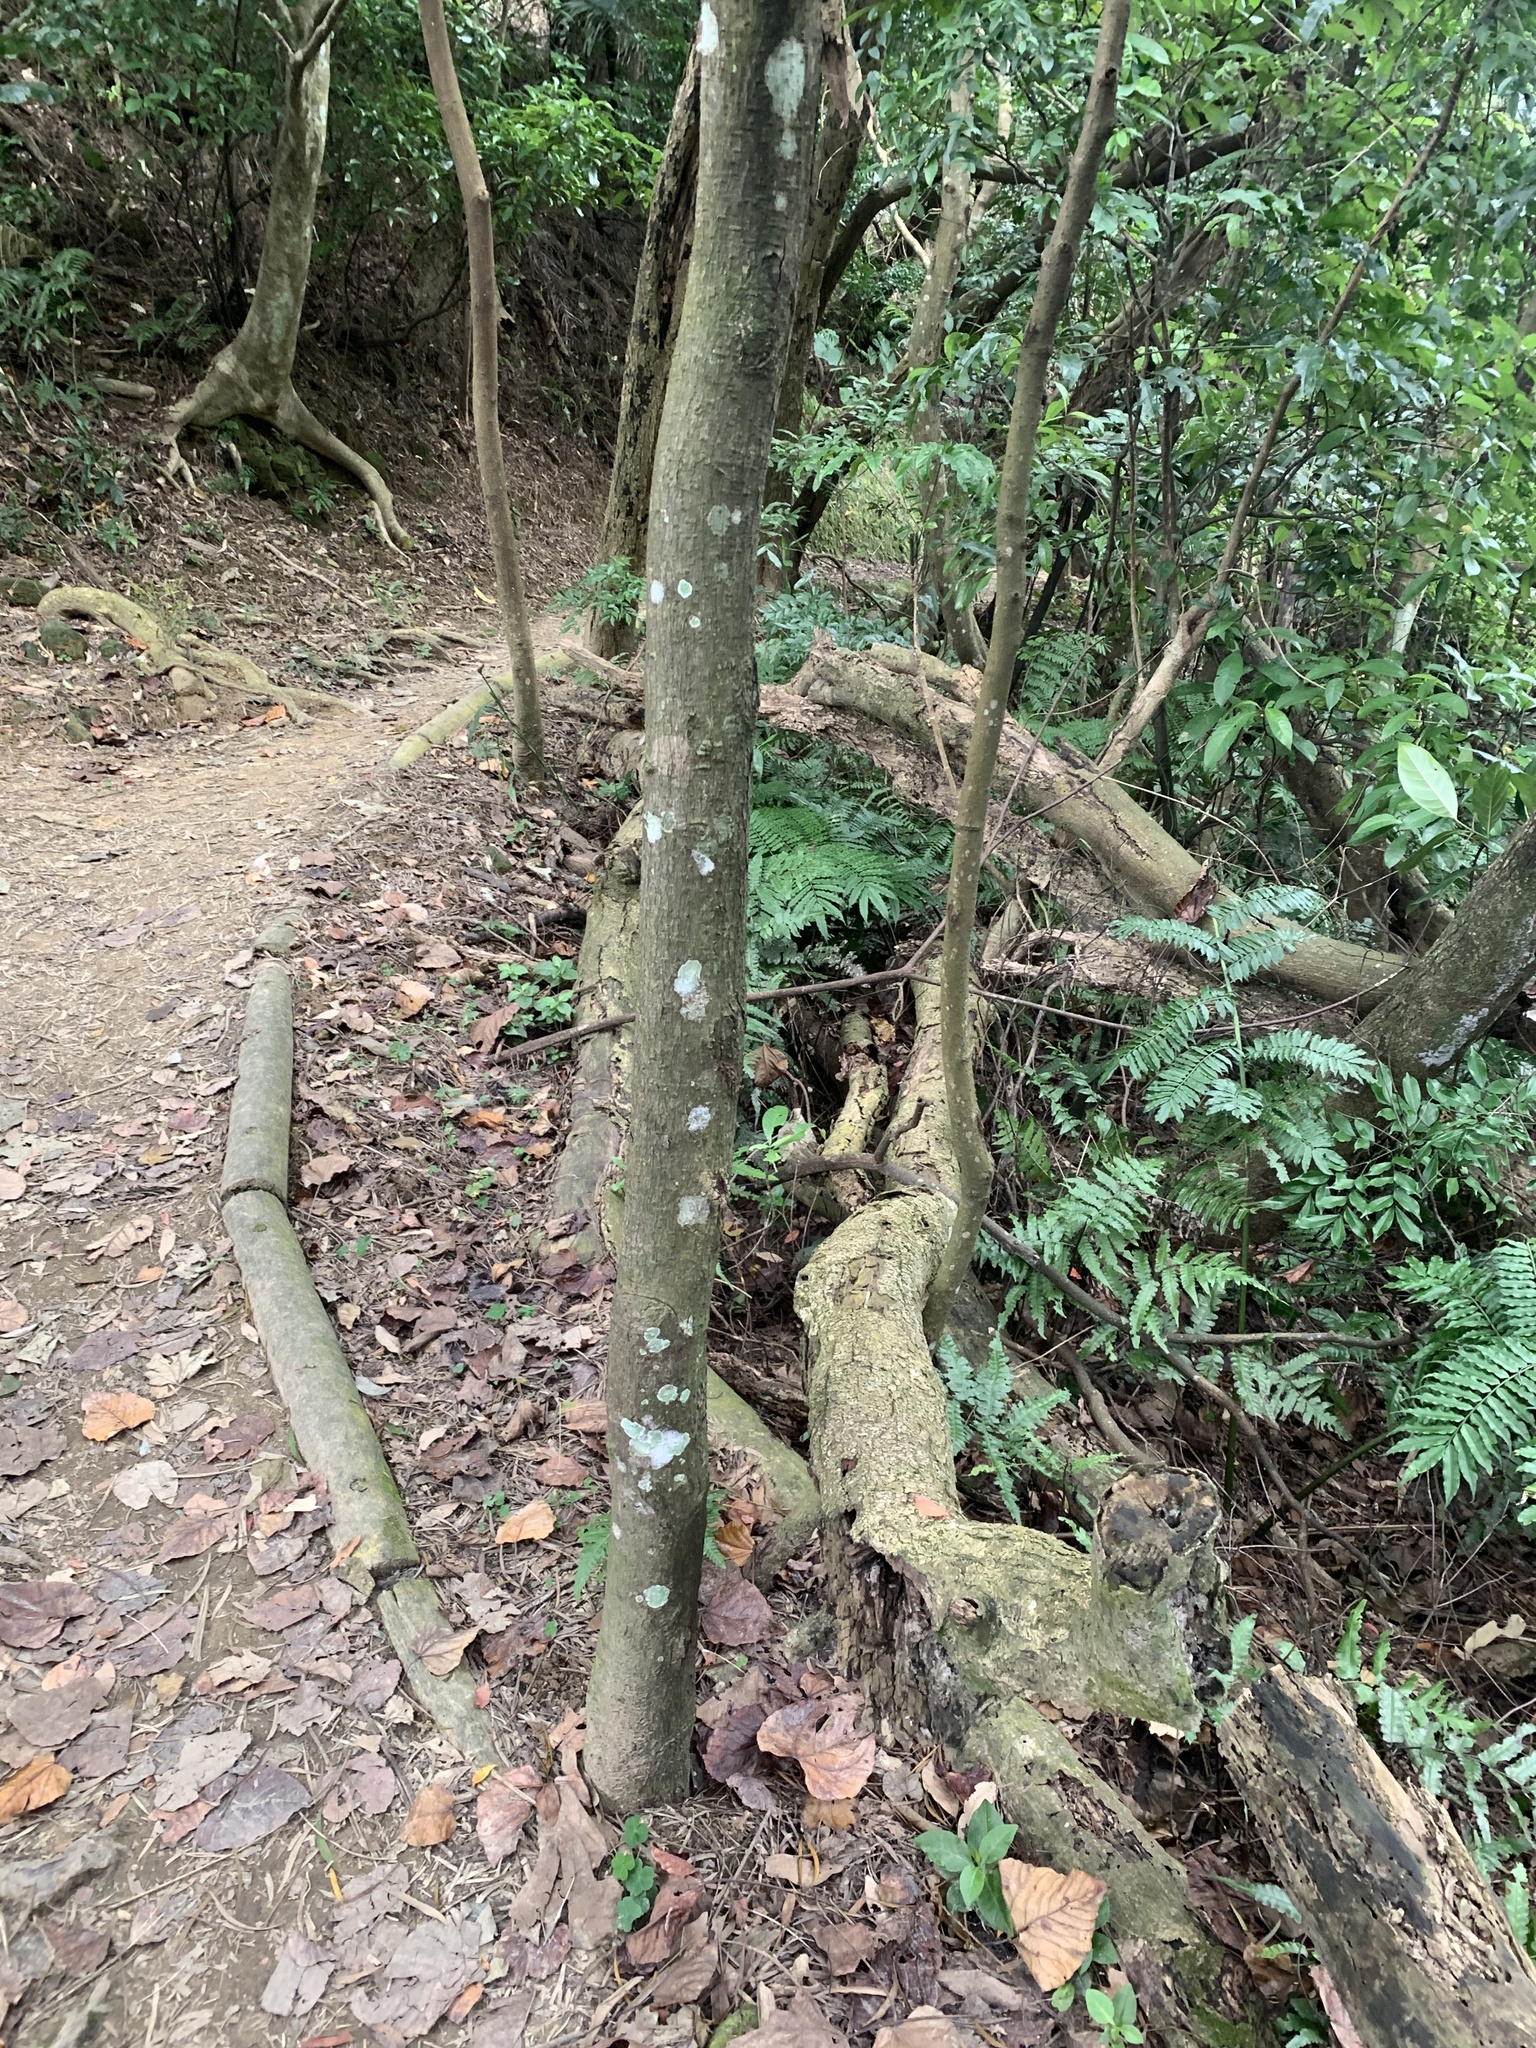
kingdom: Plantae
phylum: Tracheophyta
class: Magnoliopsida
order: Laurales
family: Lauraceae
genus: Machilus
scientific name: Machilus zuihoensis
